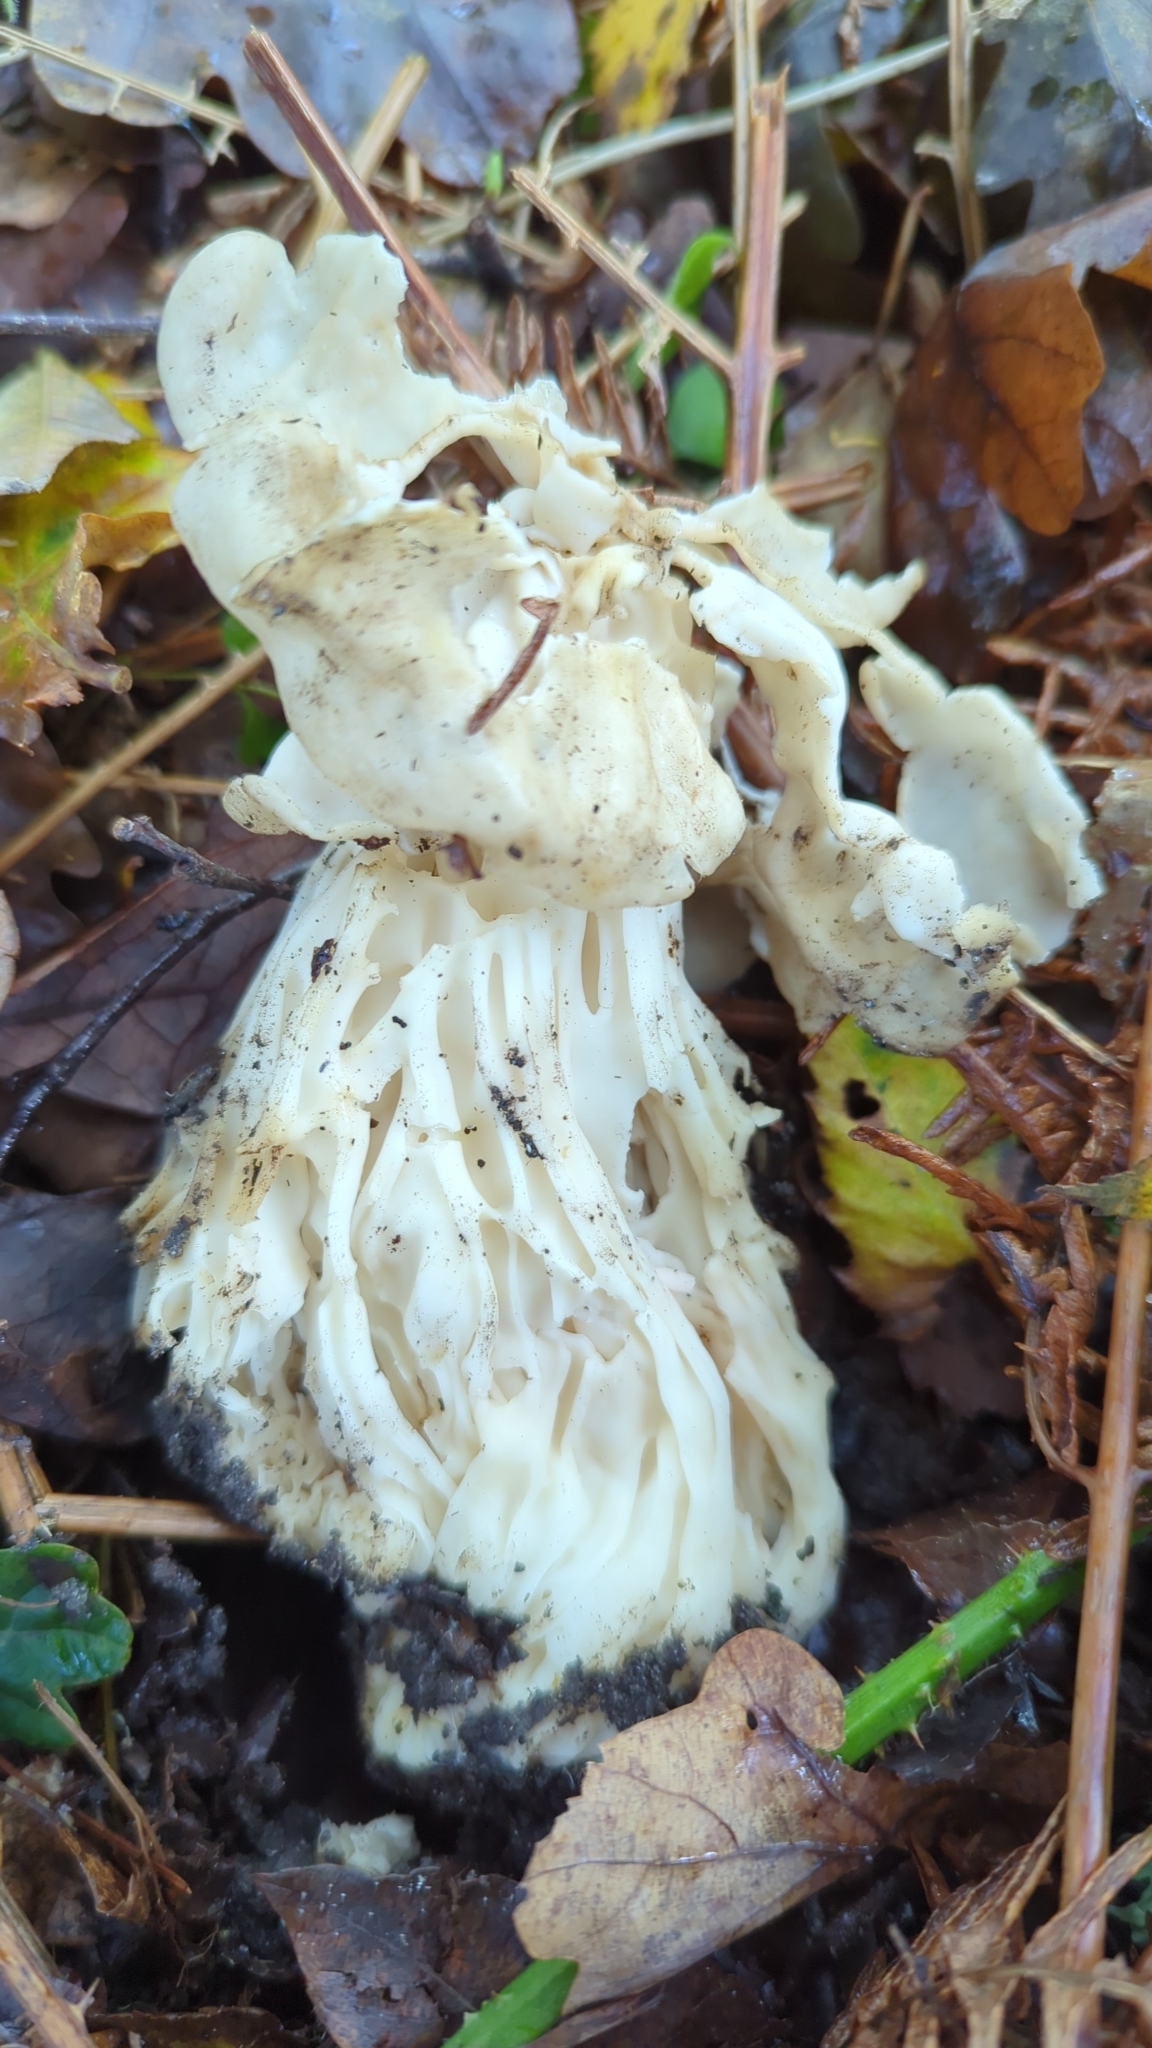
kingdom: Fungi
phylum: Ascomycota
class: Pezizomycetes
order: Pezizales
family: Helvellaceae
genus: Helvella
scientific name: Helvella crispa
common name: White saddle
